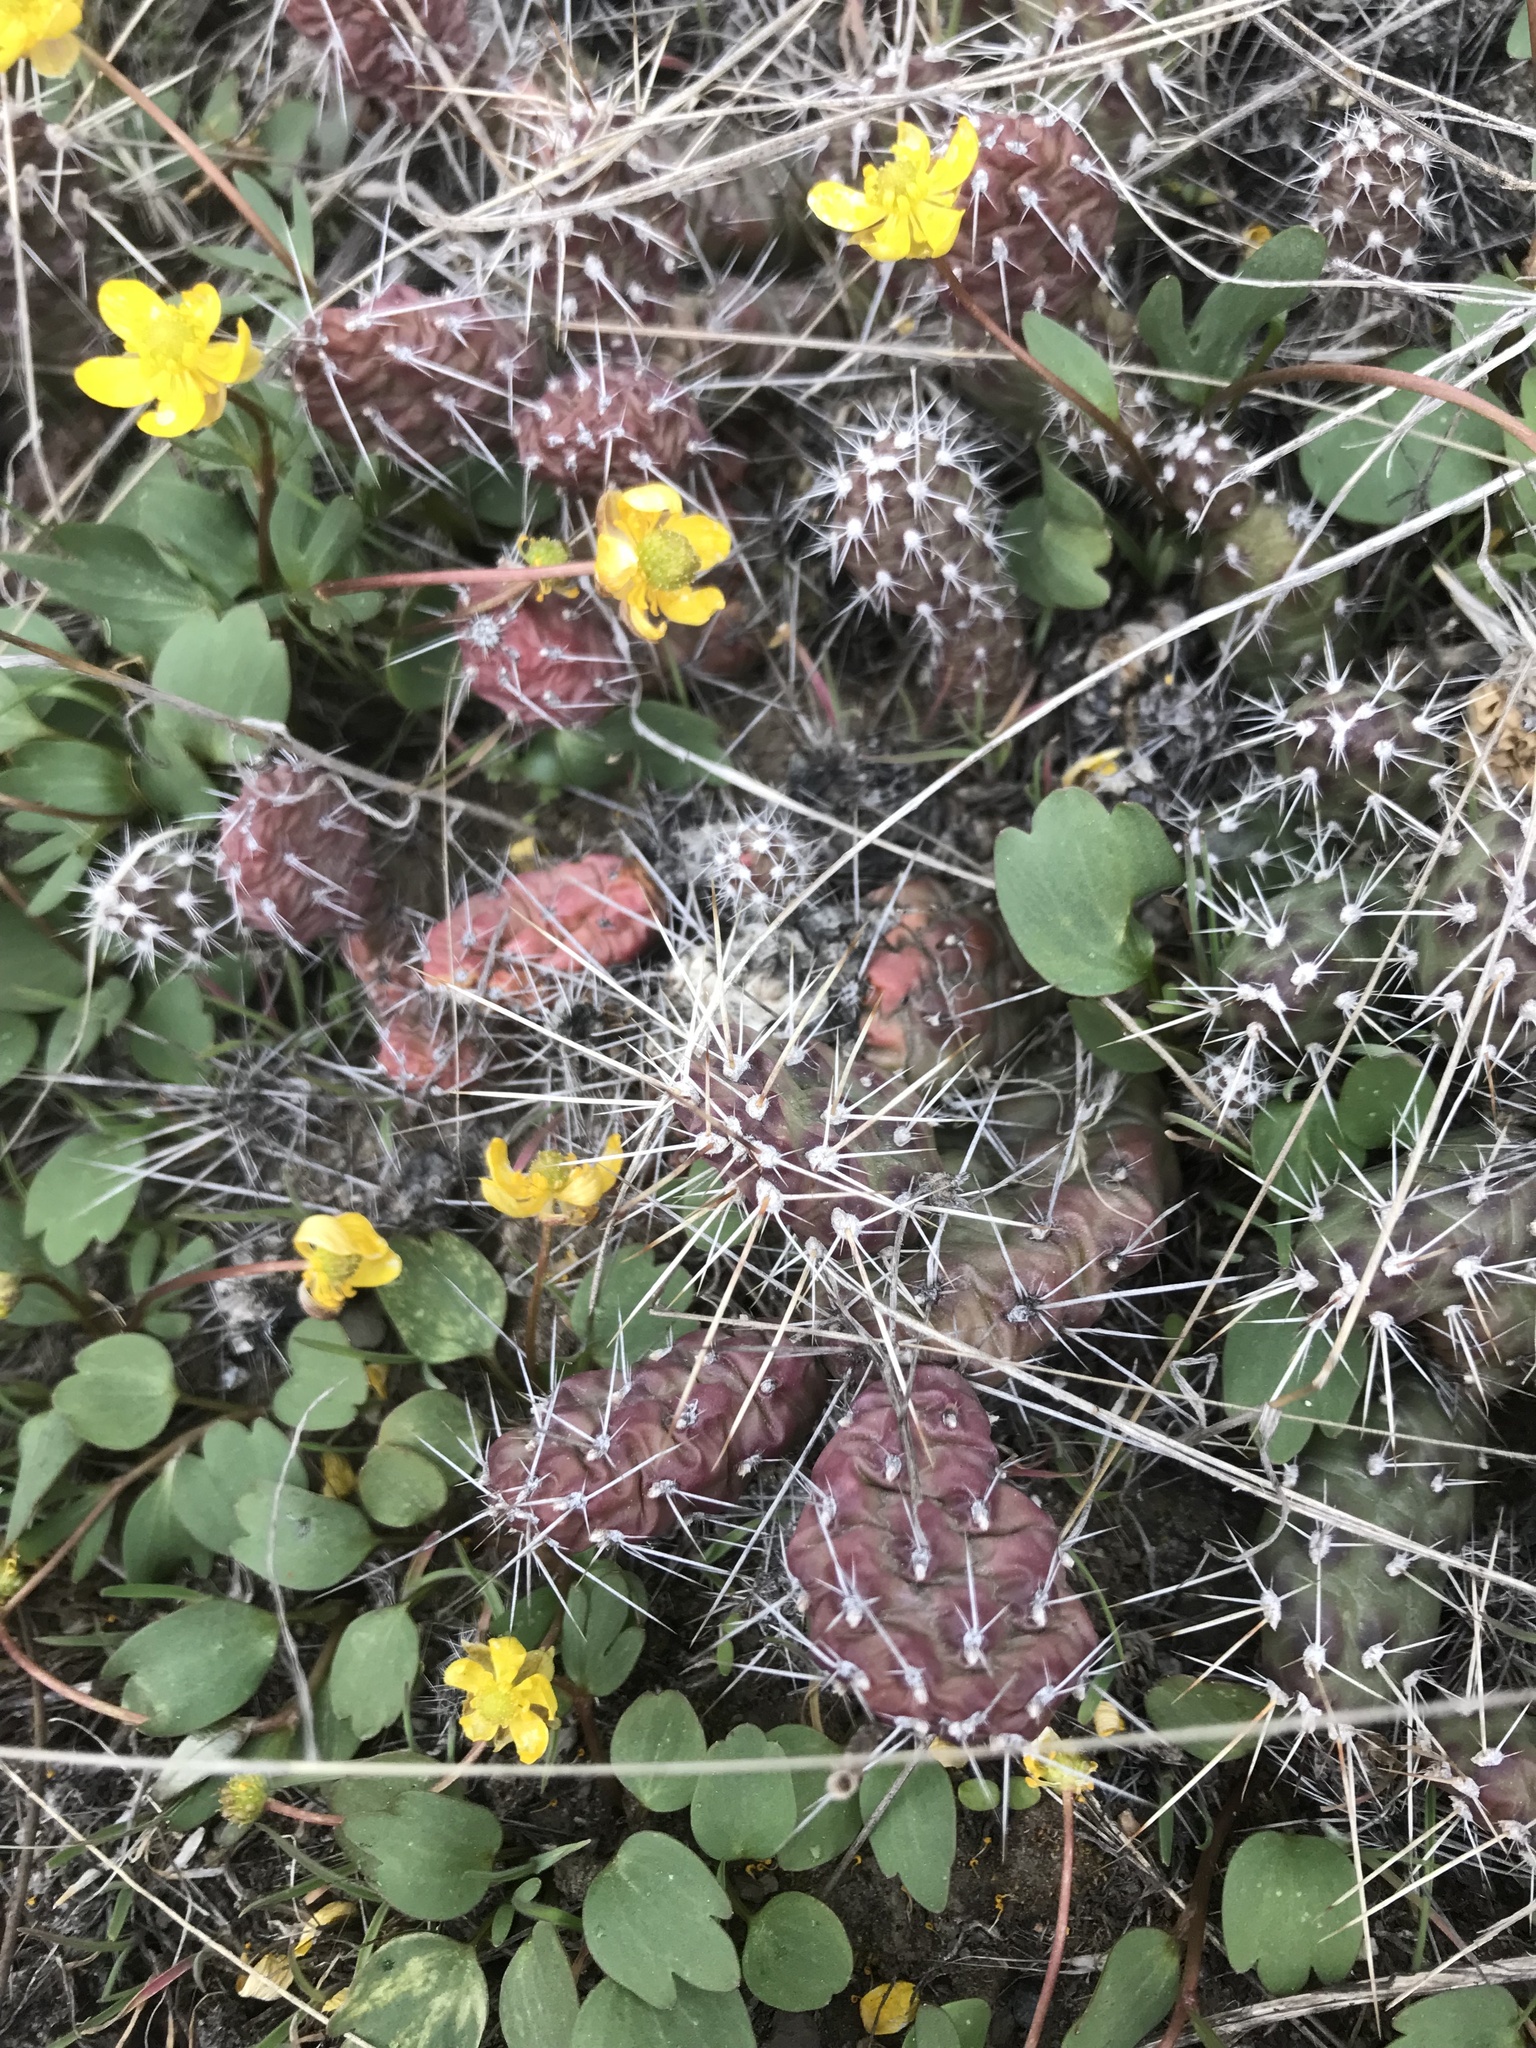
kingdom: Plantae
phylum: Tracheophyta
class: Magnoliopsida
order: Caryophyllales
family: Cactaceae
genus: Opuntia
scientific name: Opuntia fragilis
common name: Brittle cactus
